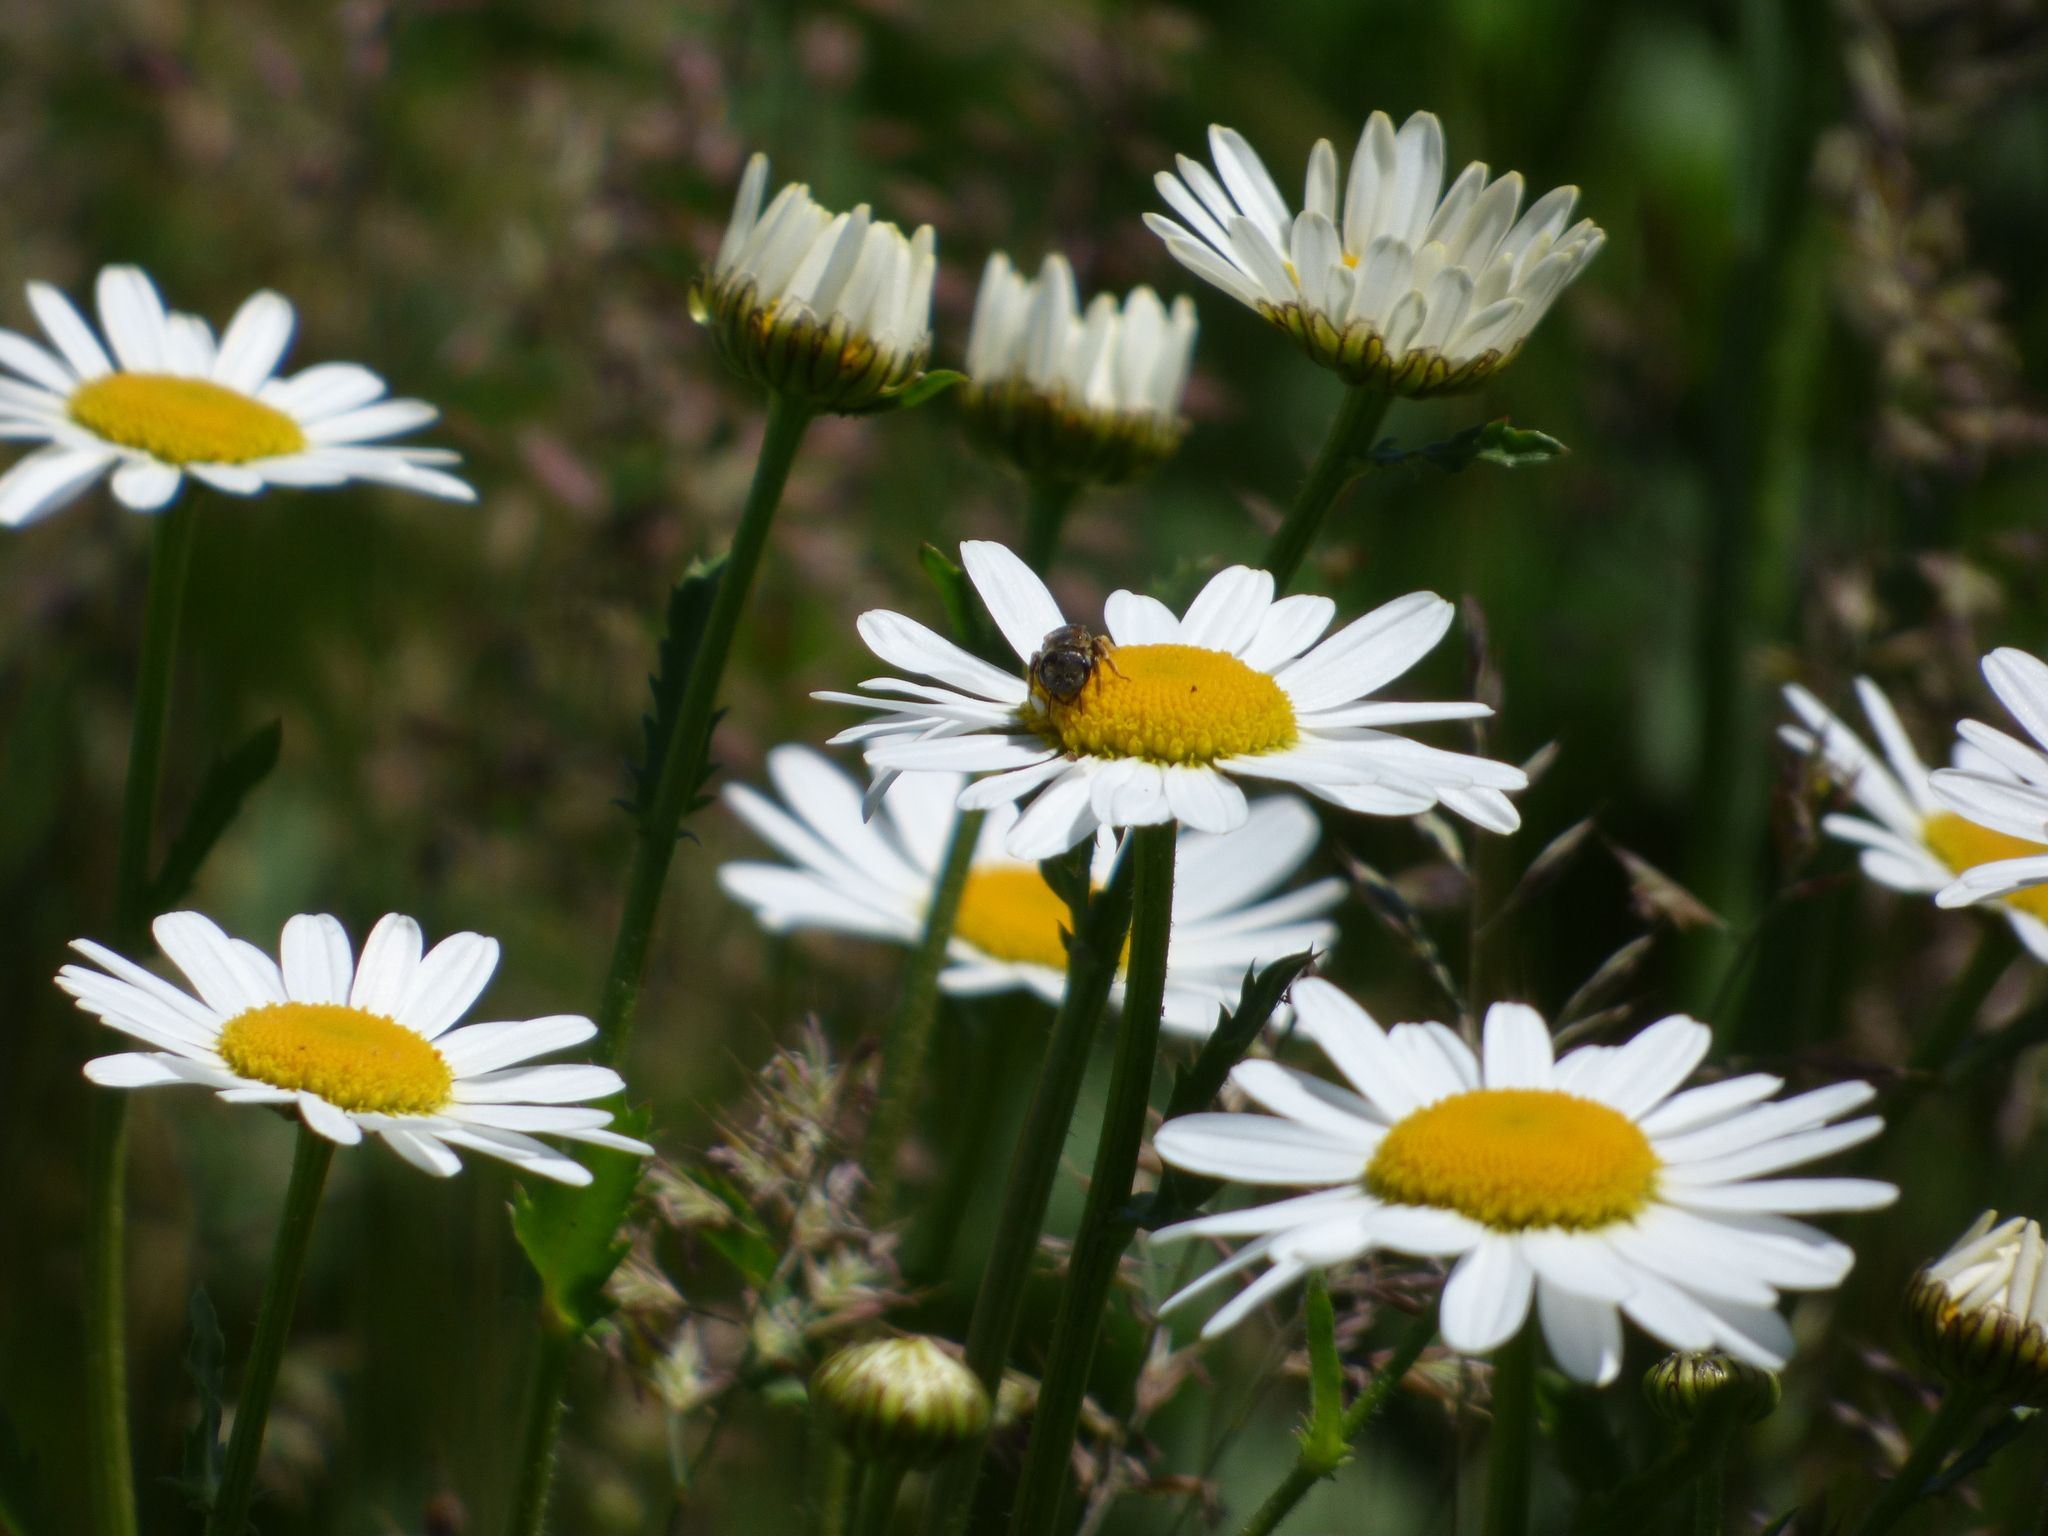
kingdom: Plantae
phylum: Tracheophyta
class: Magnoliopsida
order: Asterales
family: Asteraceae
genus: Leucanthemum
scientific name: Leucanthemum vulgare
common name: Oxeye daisy
